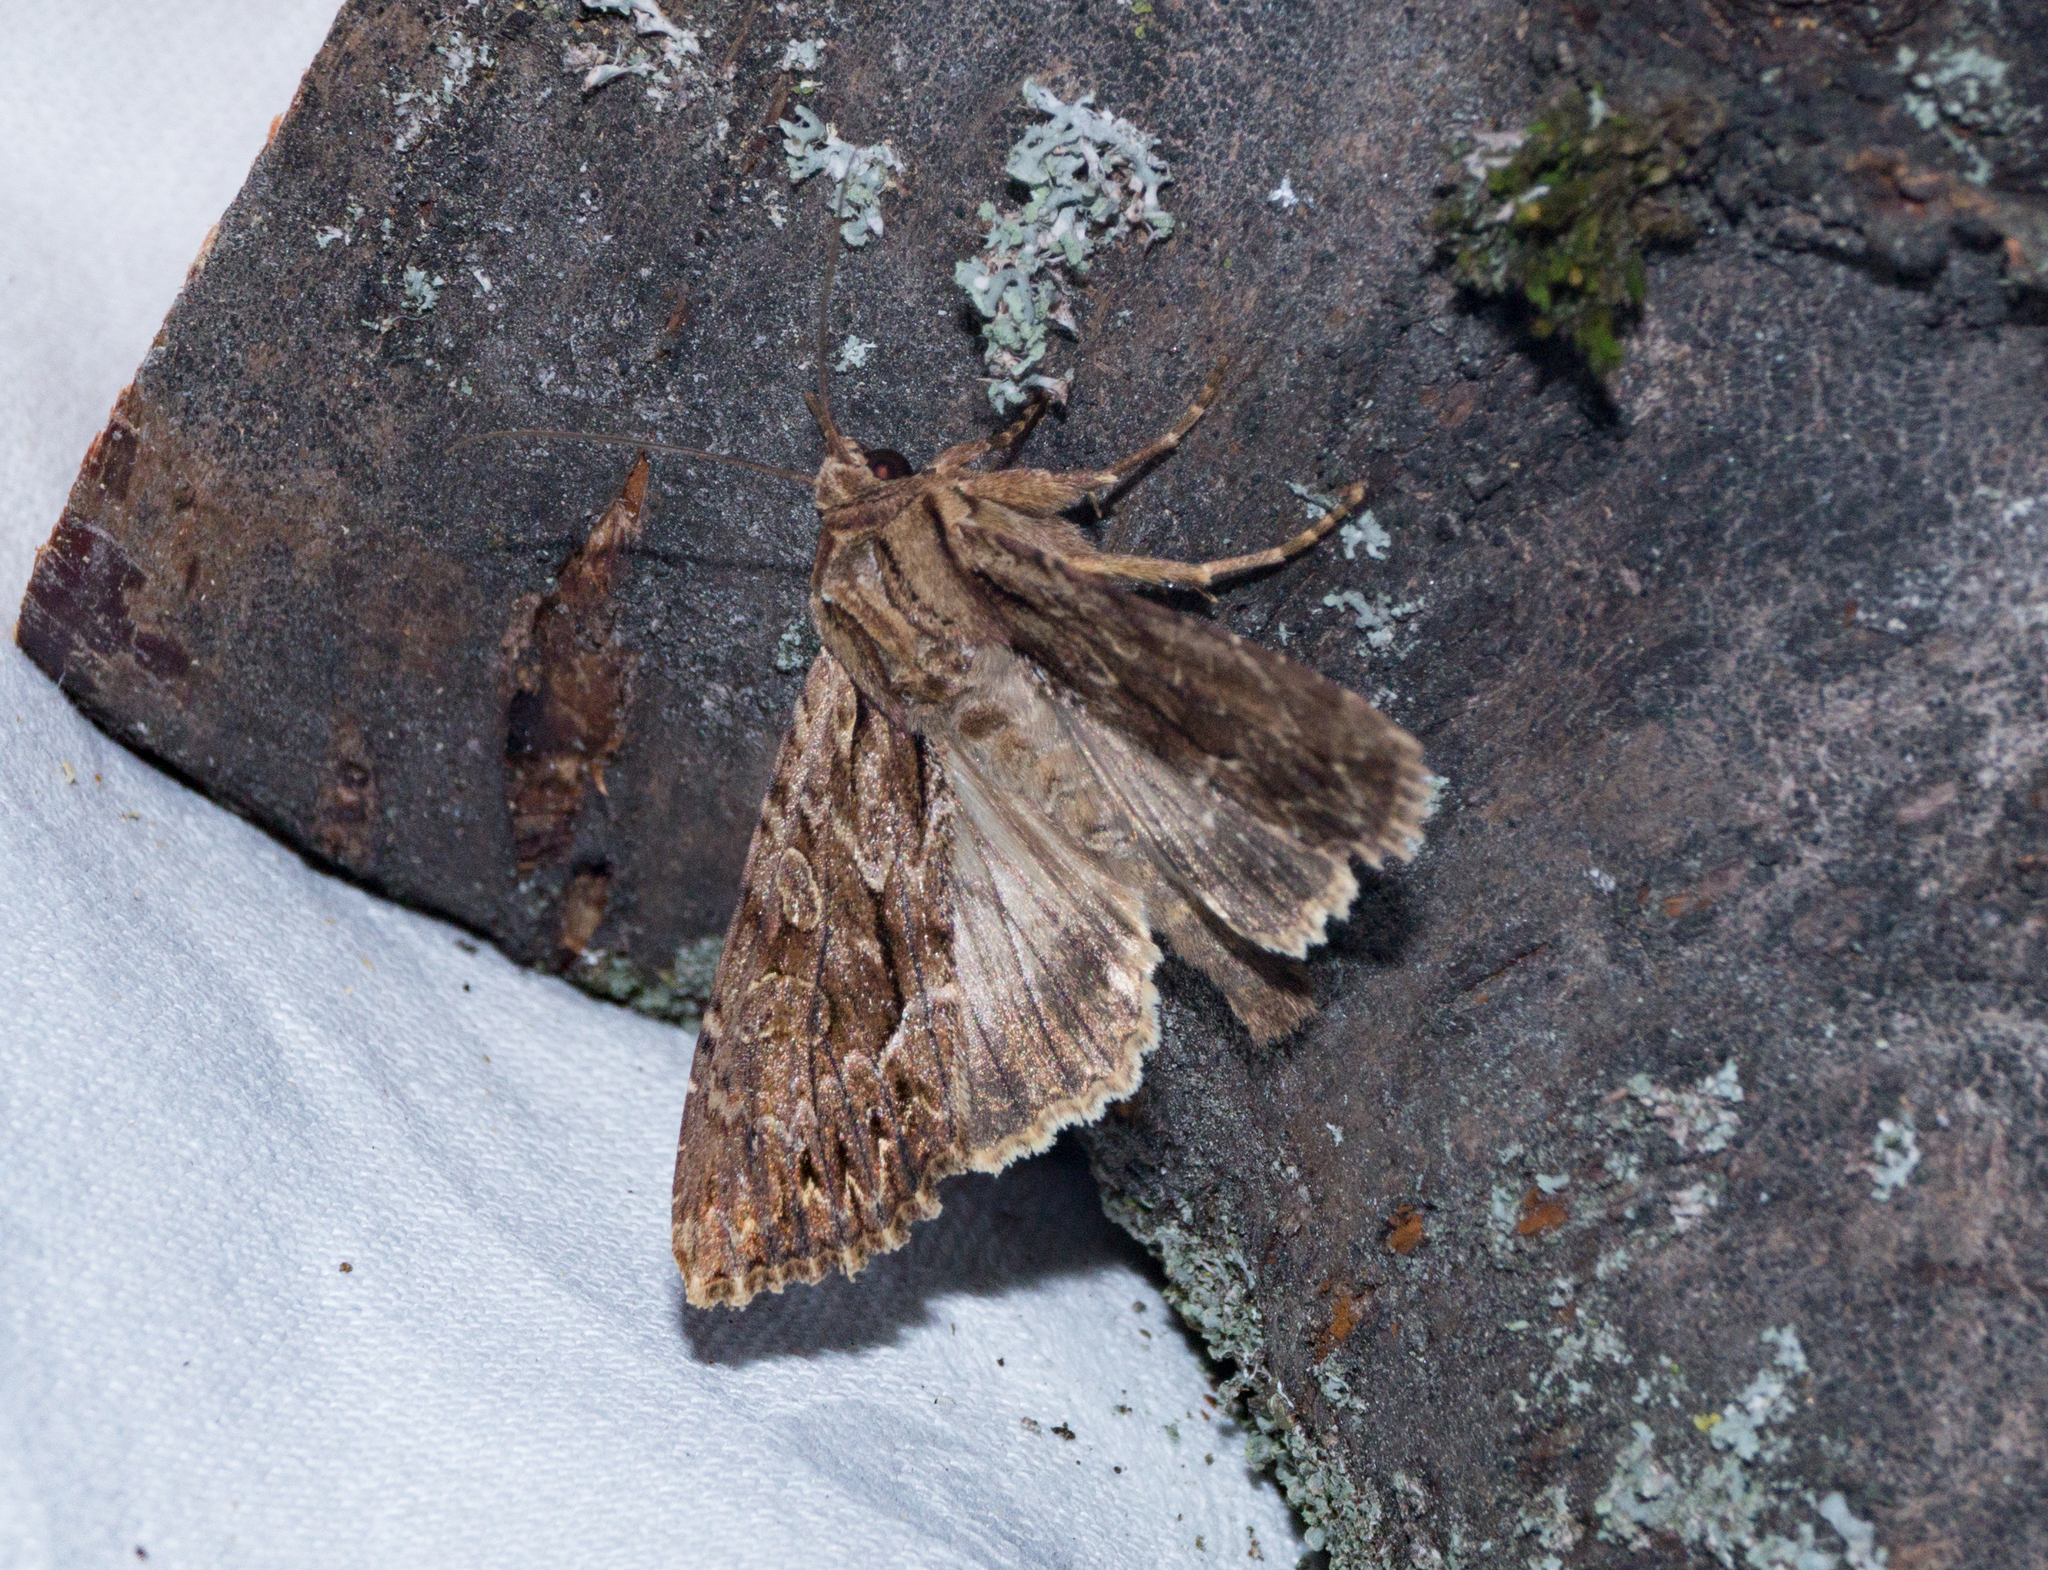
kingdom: Animalia
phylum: Arthropoda
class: Insecta
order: Lepidoptera
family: Noctuidae
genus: Apamea
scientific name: Apamea monoglypha
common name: Dark arches
